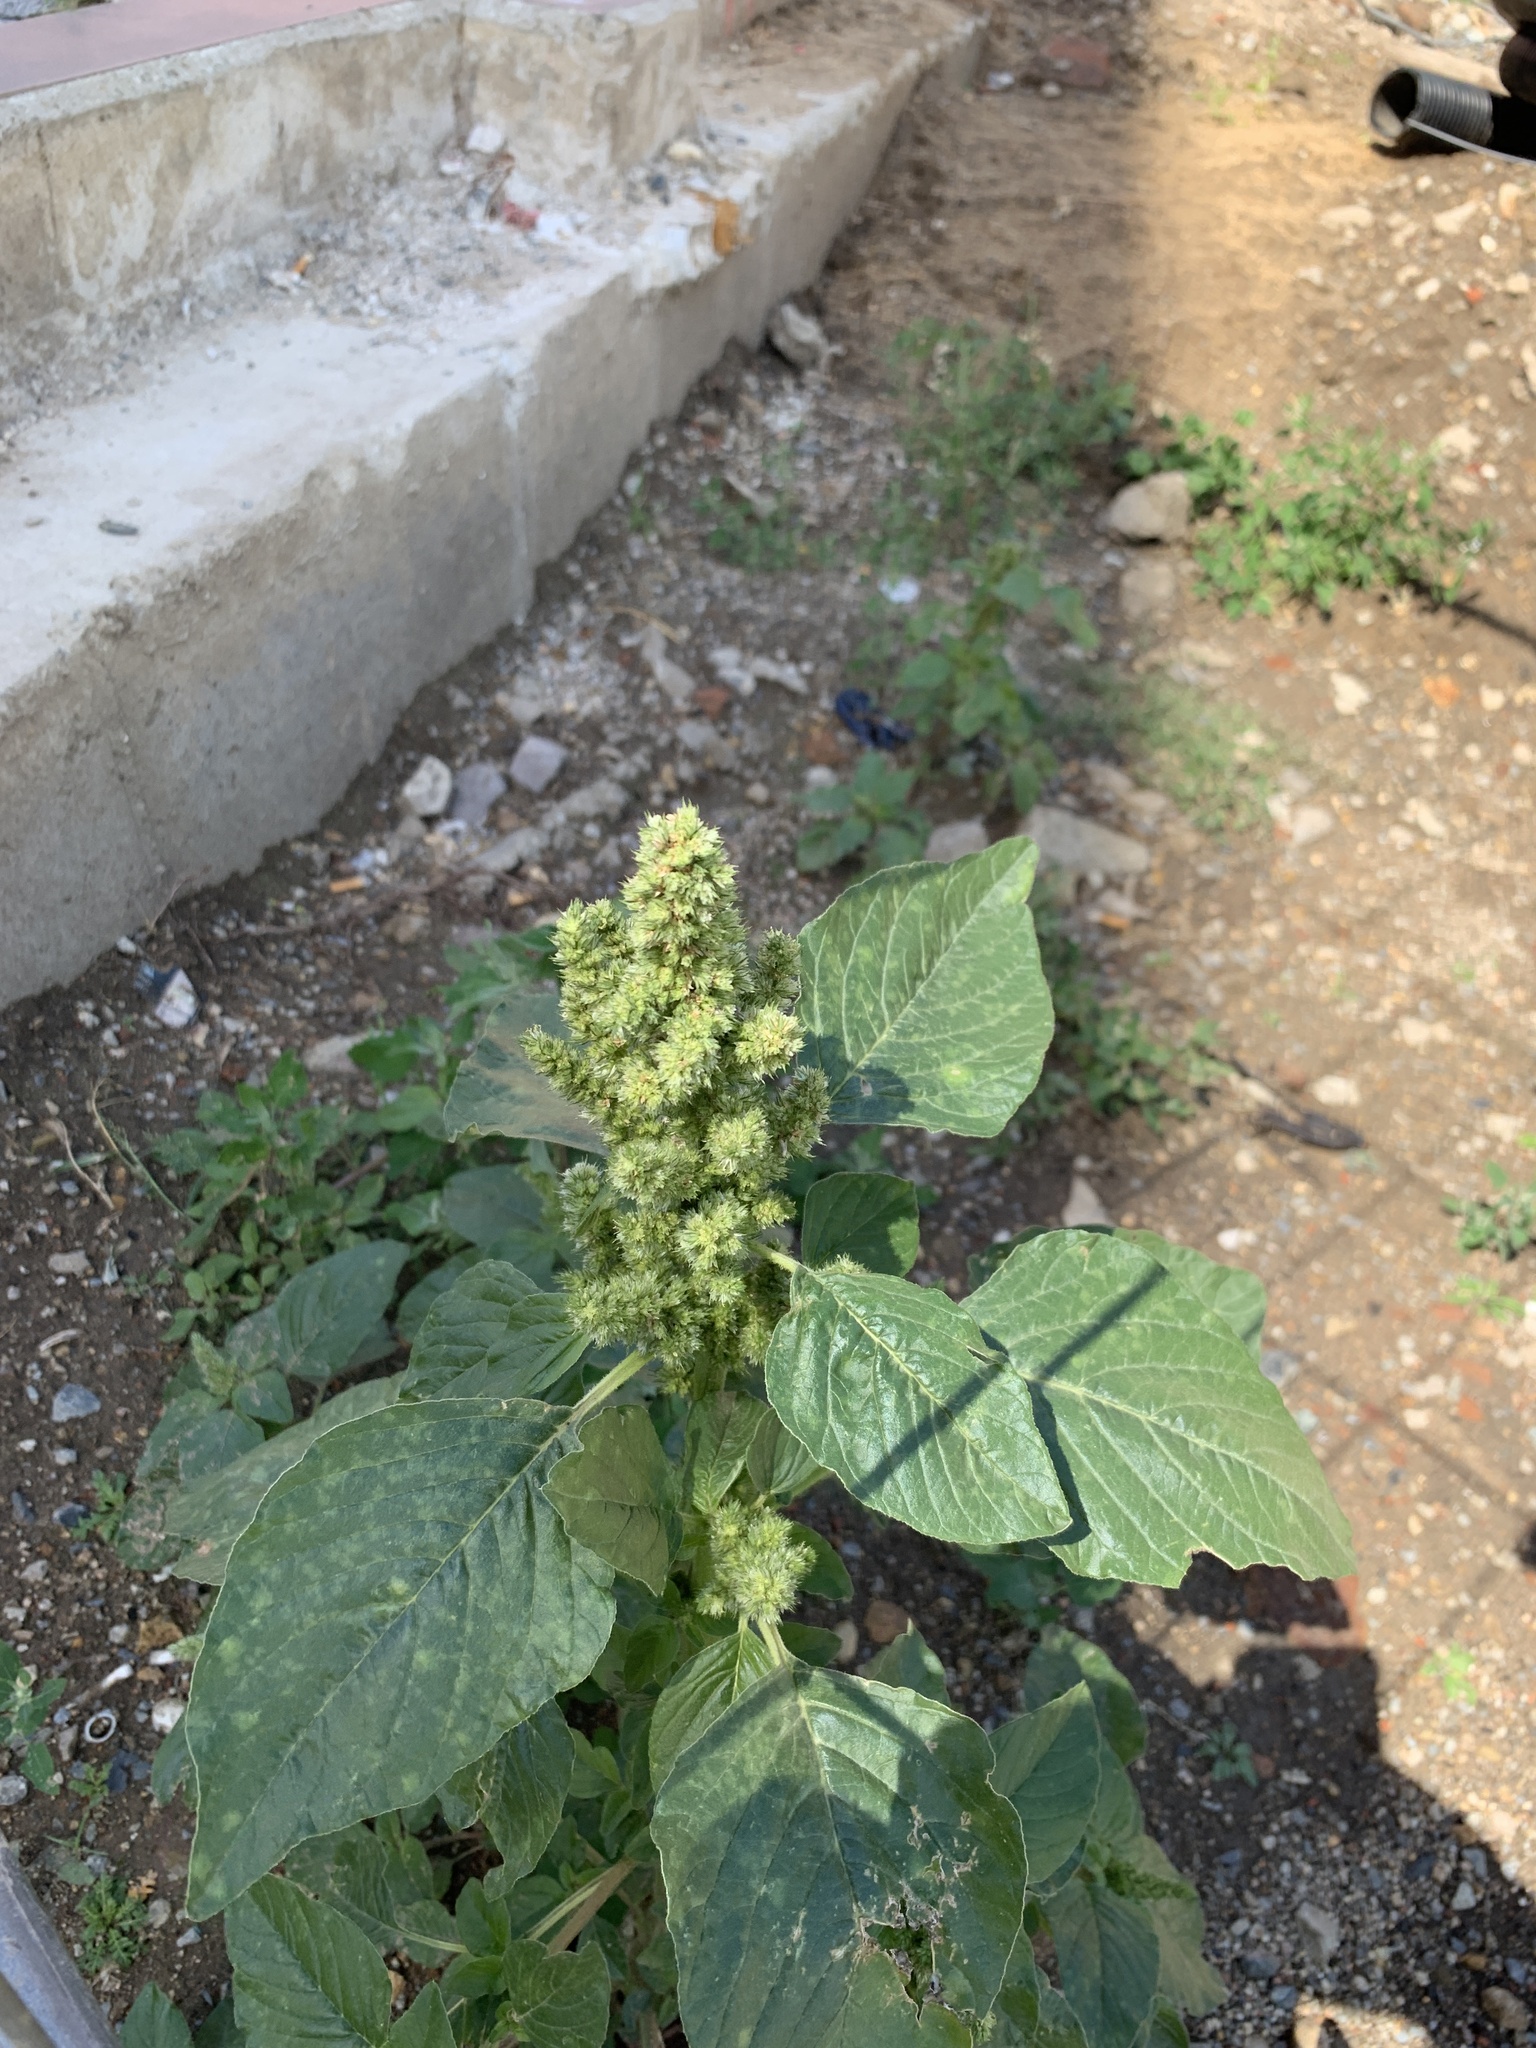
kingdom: Plantae
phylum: Tracheophyta
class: Magnoliopsida
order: Caryophyllales
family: Amaranthaceae
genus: Amaranthus
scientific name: Amaranthus retroflexus
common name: Redroot amaranth
